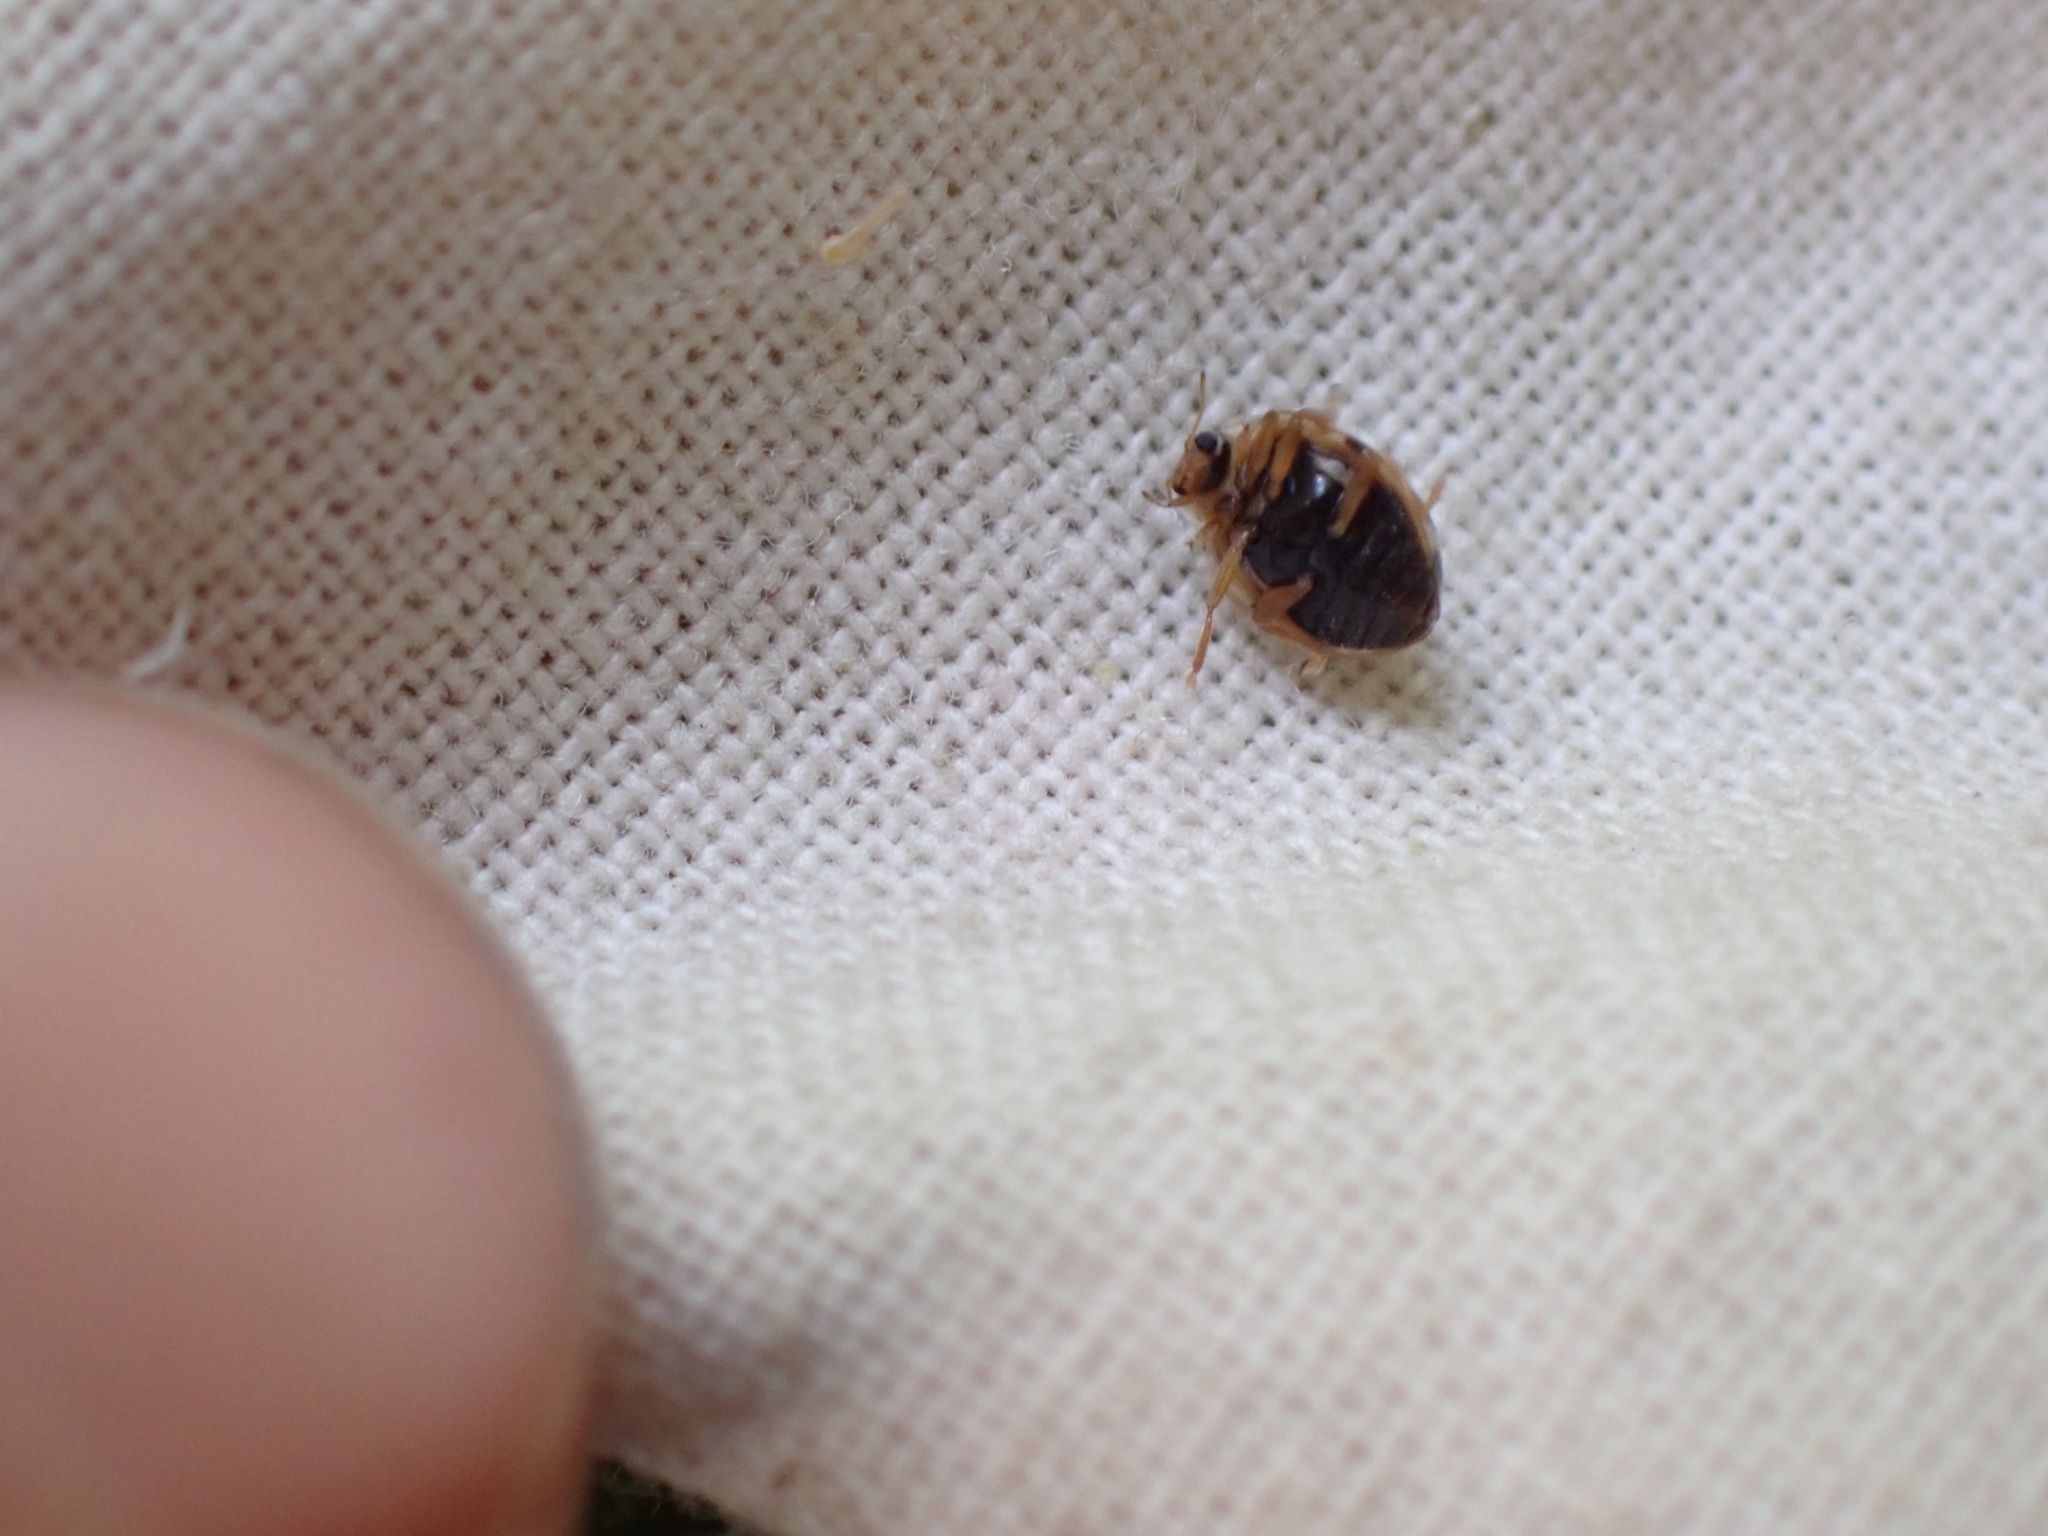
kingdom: Animalia
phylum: Arthropoda
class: Insecta
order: Coleoptera
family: Coccinellidae
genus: Psyllobora
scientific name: Psyllobora borealis
